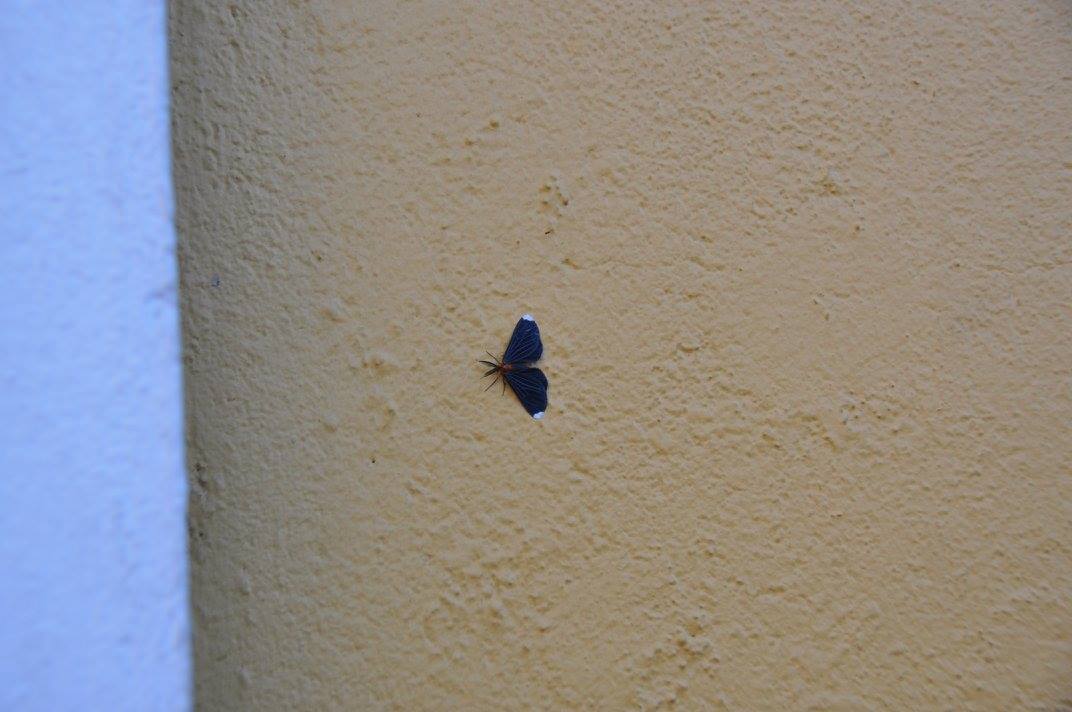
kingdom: Animalia
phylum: Arthropoda
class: Insecta
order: Lepidoptera
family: Geometridae
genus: Melanchroia
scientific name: Melanchroia chephise
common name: White-tipped black
